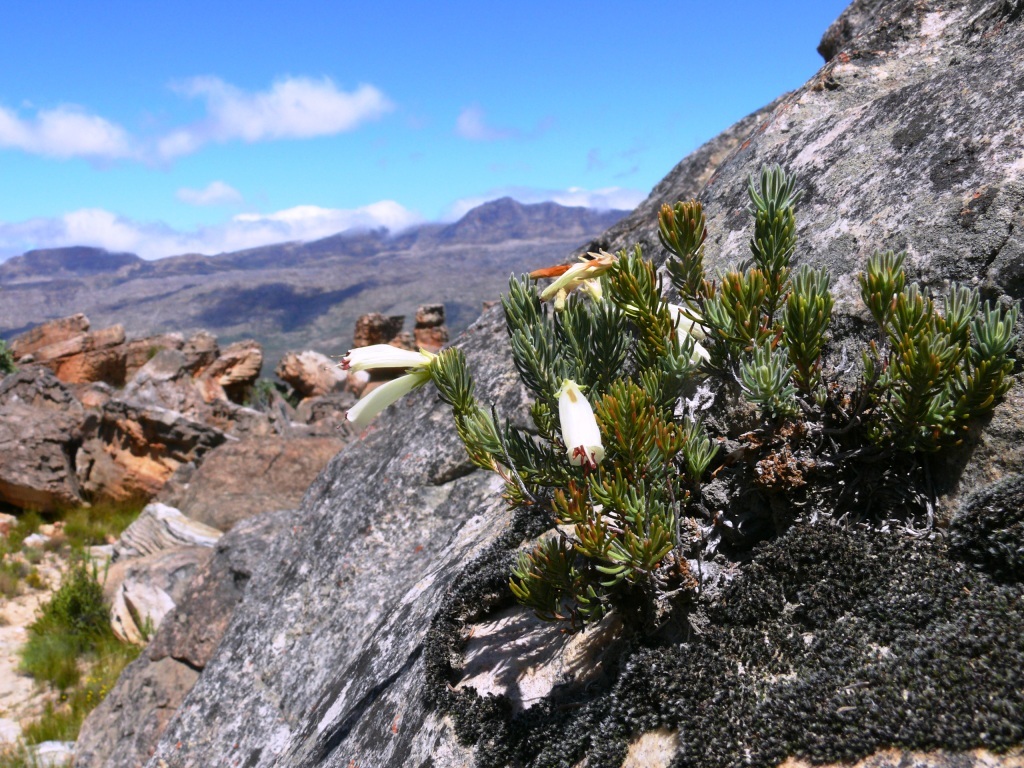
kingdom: Plantae
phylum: Tracheophyta
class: Magnoliopsida
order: Ericales
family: Ericaceae
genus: Erica
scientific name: Erica maximiliani
